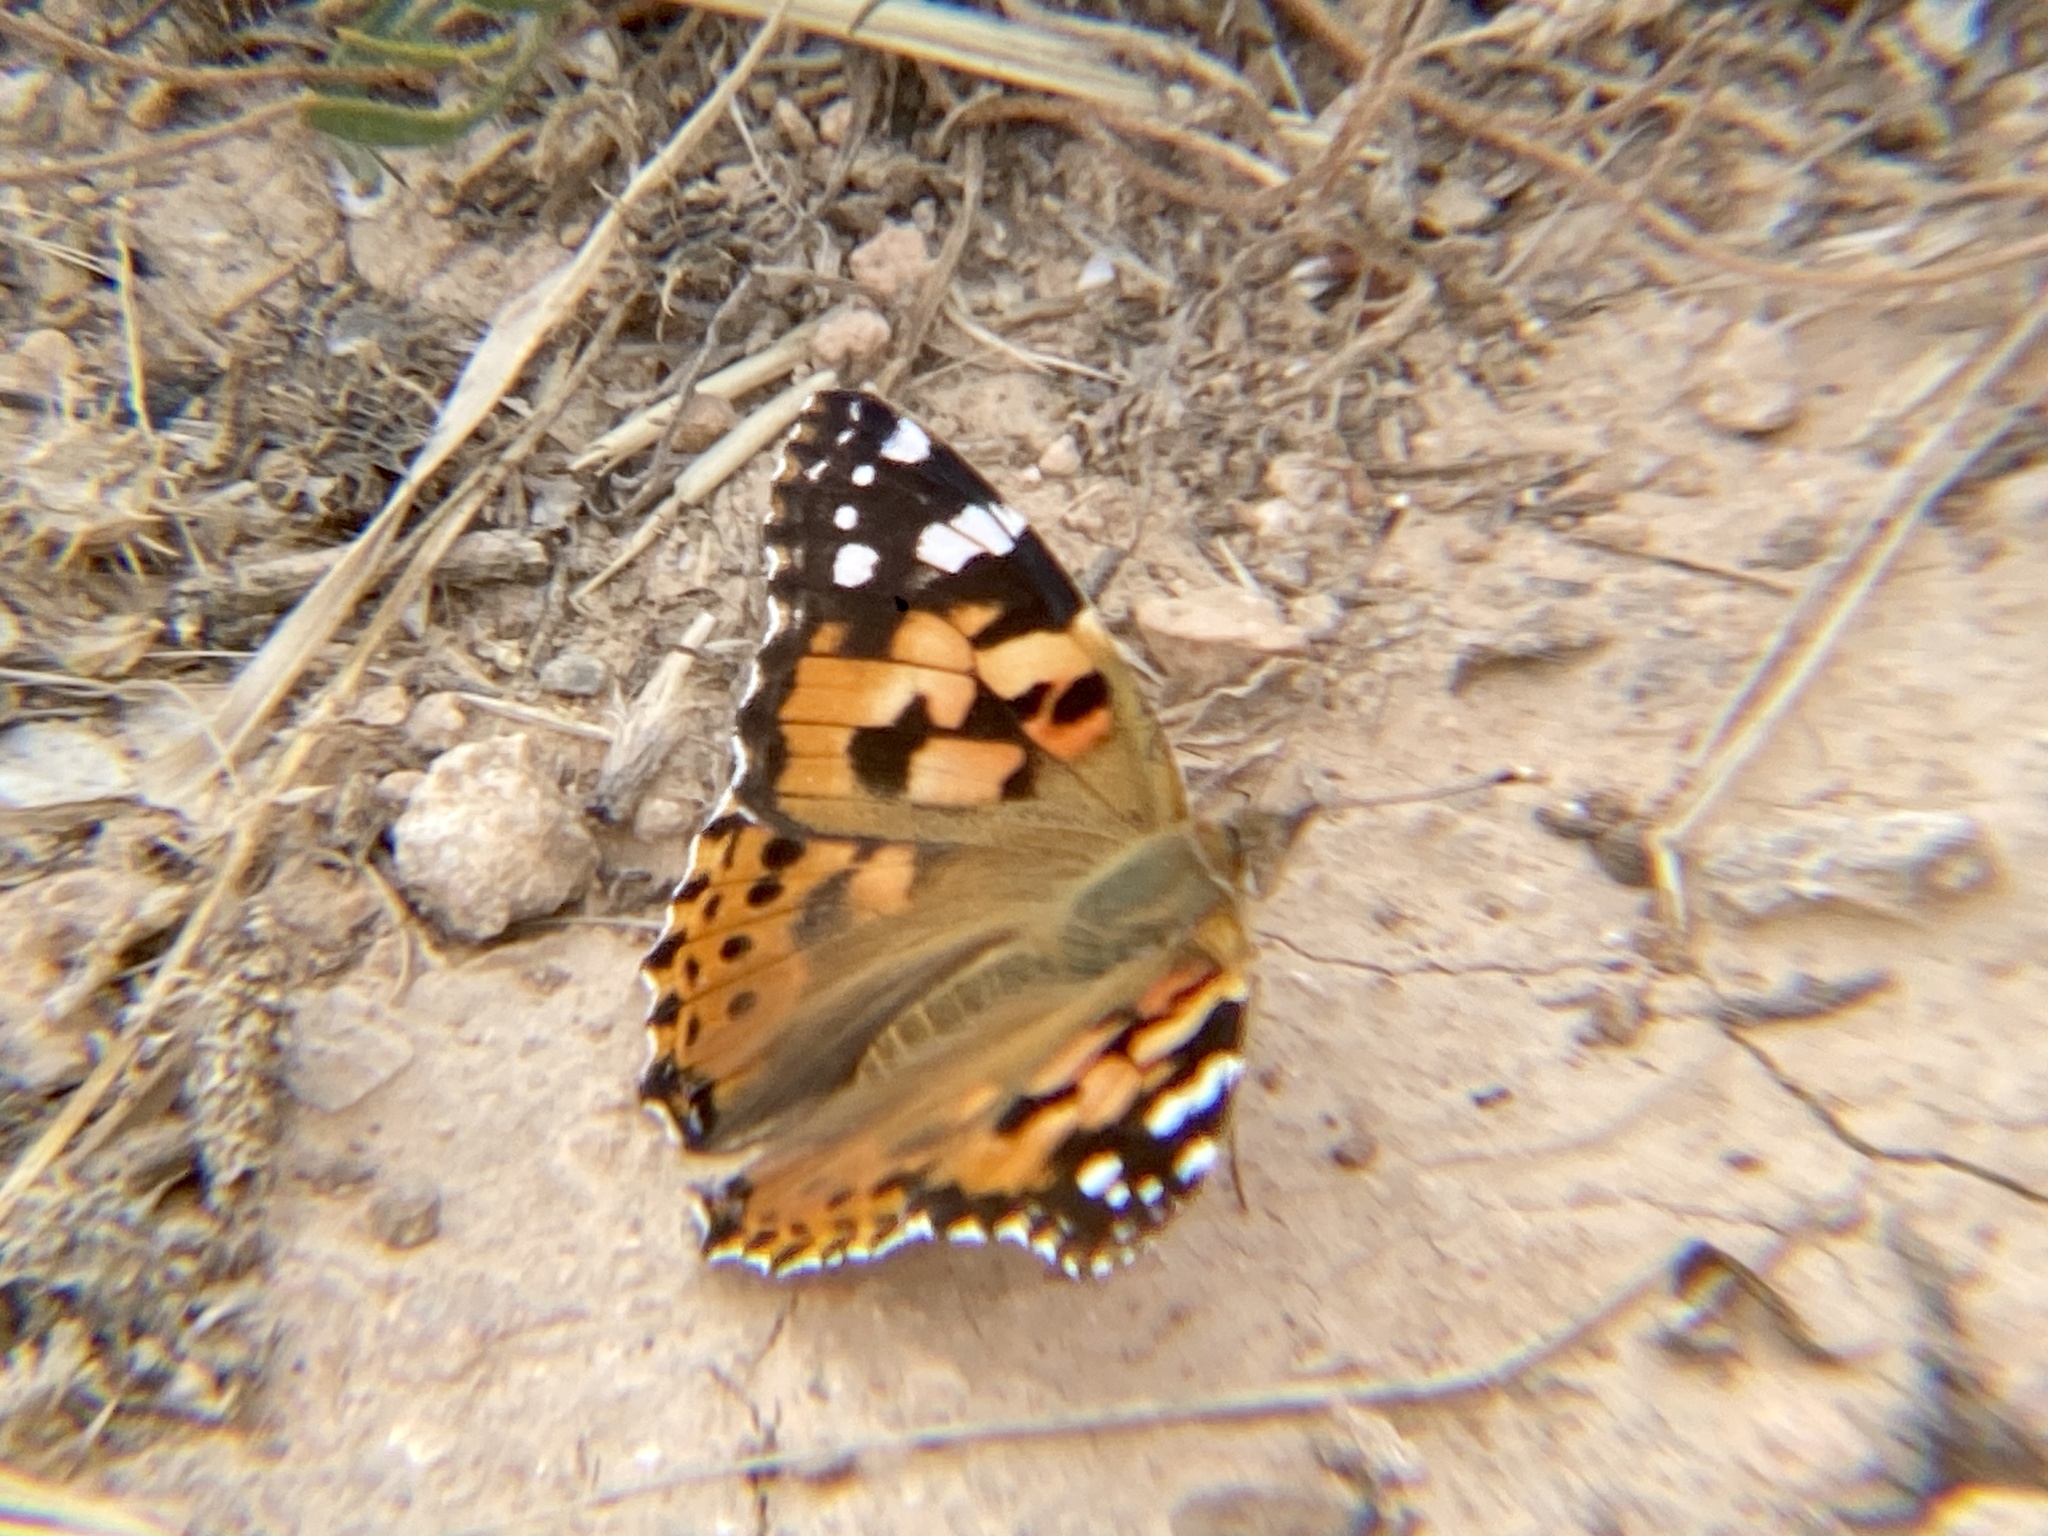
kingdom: Animalia
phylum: Arthropoda
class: Insecta
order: Lepidoptera
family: Nymphalidae
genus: Vanessa
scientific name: Vanessa cardui
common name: Painted lady
